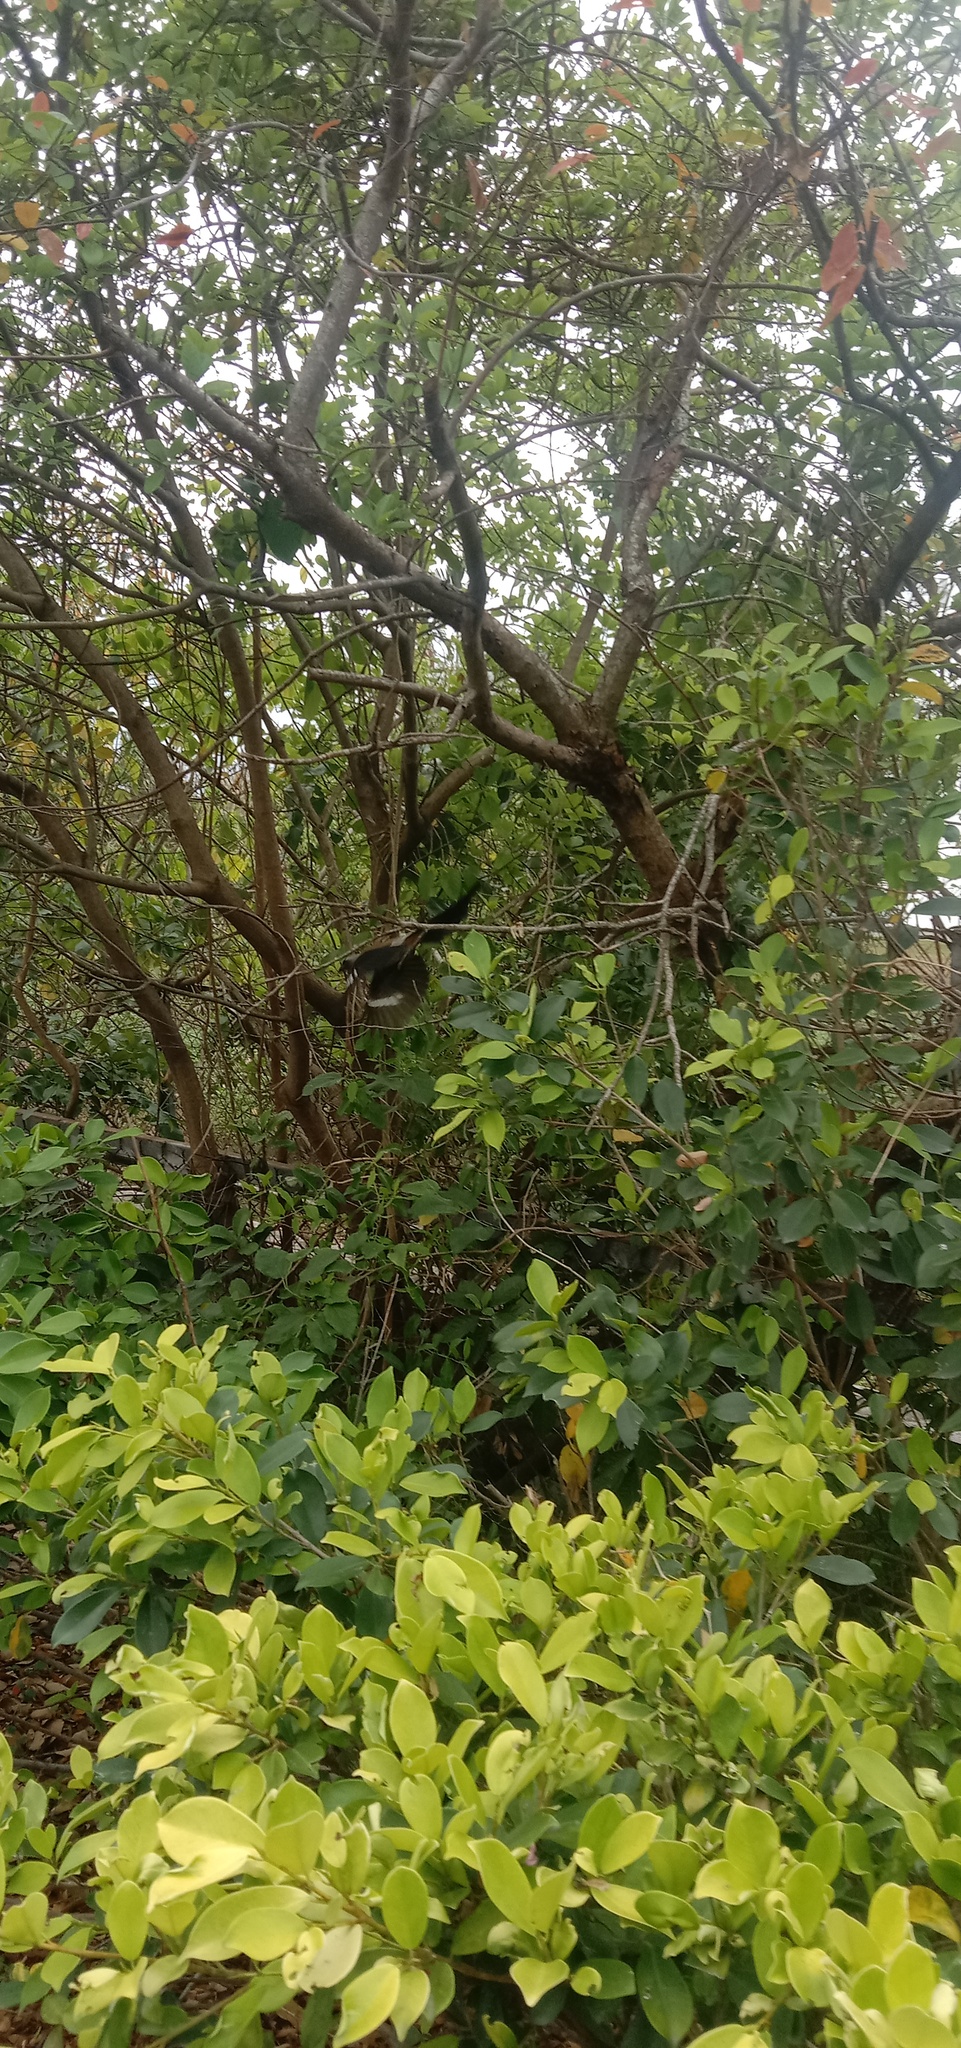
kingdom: Animalia
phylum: Chordata
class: Aves
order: Passeriformes
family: Corvidae
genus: Dendrocitta
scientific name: Dendrocitta formosae
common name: Grey treepie
